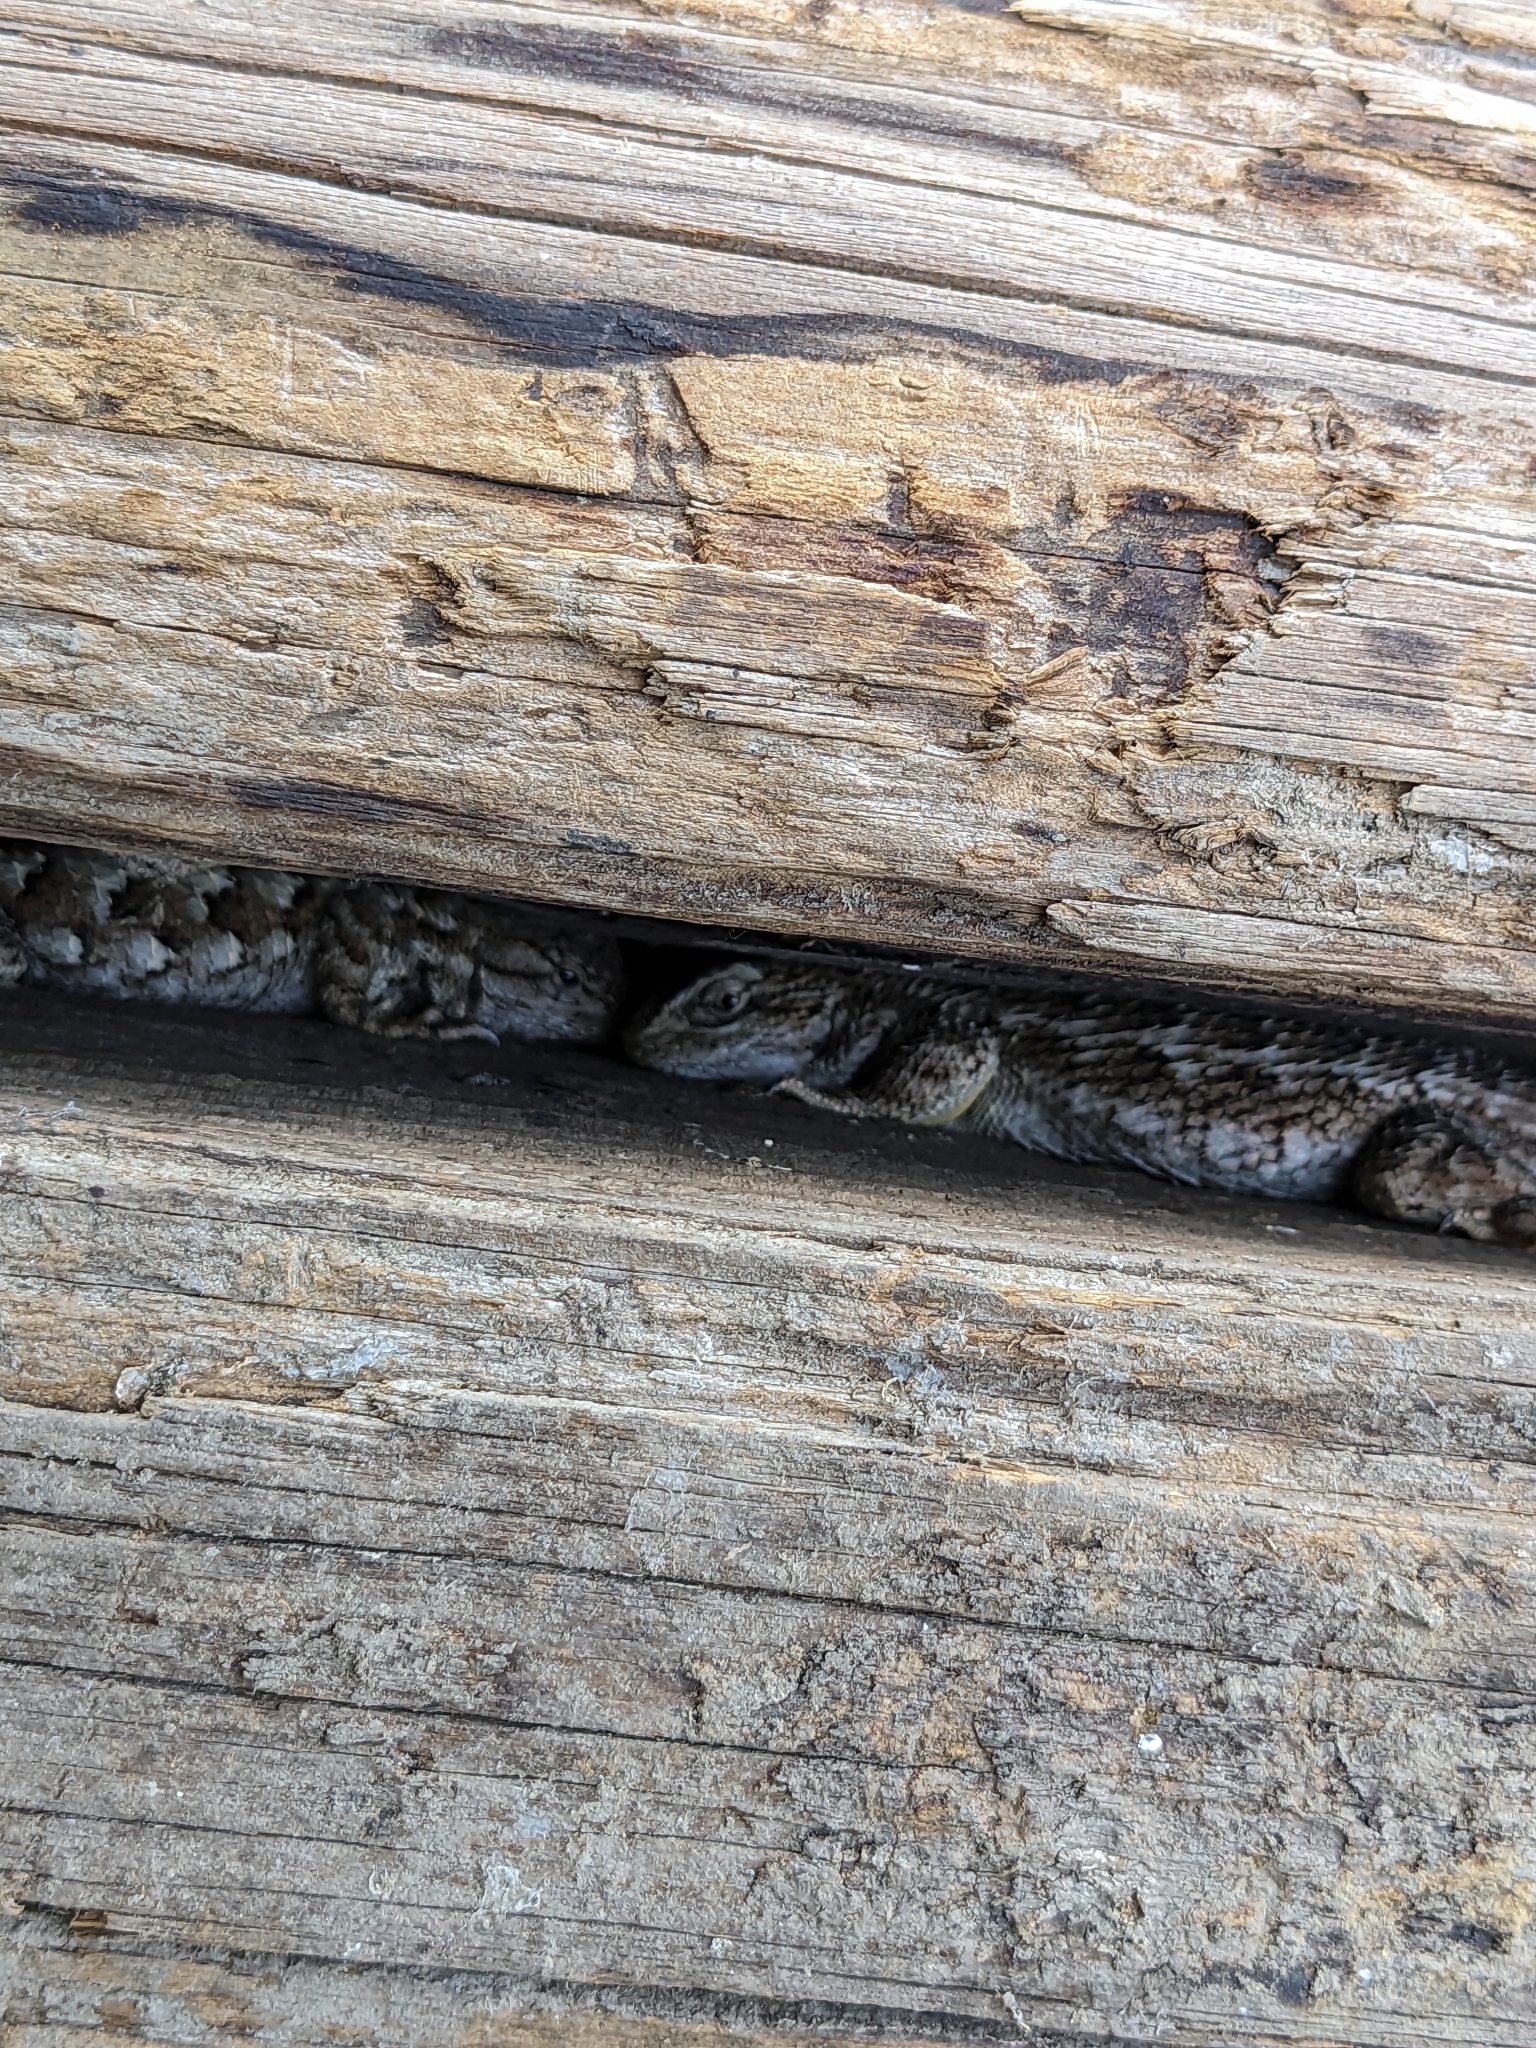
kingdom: Animalia
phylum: Chordata
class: Squamata
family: Phrynosomatidae
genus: Sceloporus
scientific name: Sceloporus occidentalis
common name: Western fence lizard
